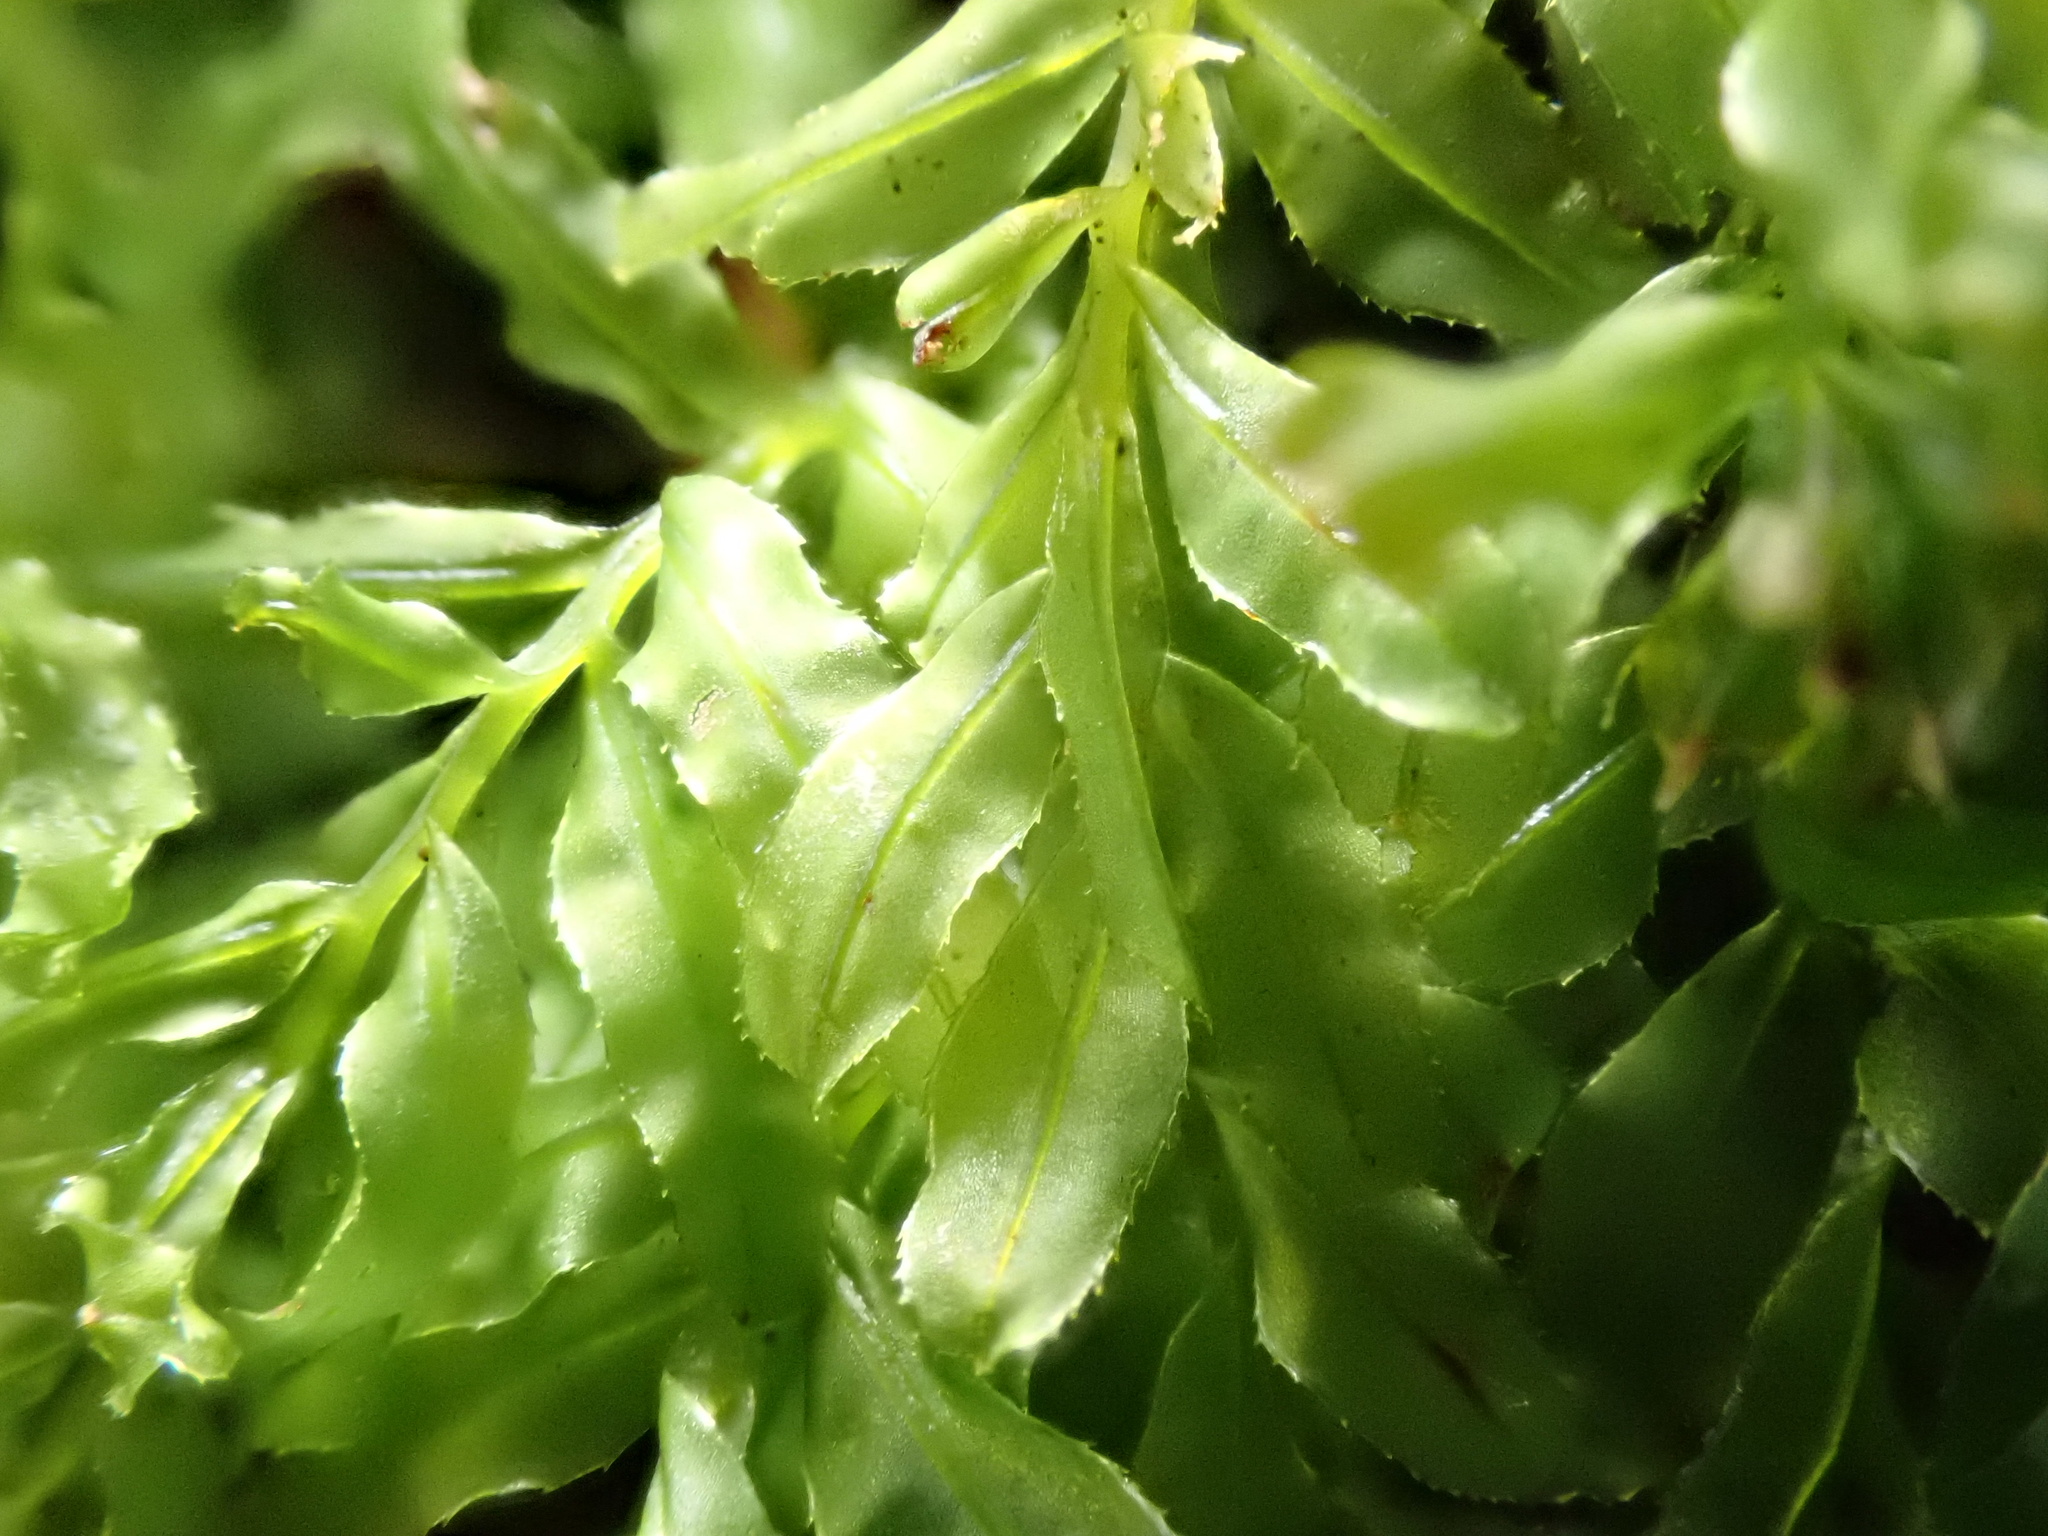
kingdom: Plantae
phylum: Bryophyta
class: Bryopsida
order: Bryales
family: Mniaceae
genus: Plagiomnium
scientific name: Plagiomnium undulatum
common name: Hart's-tongue thyme-moss
